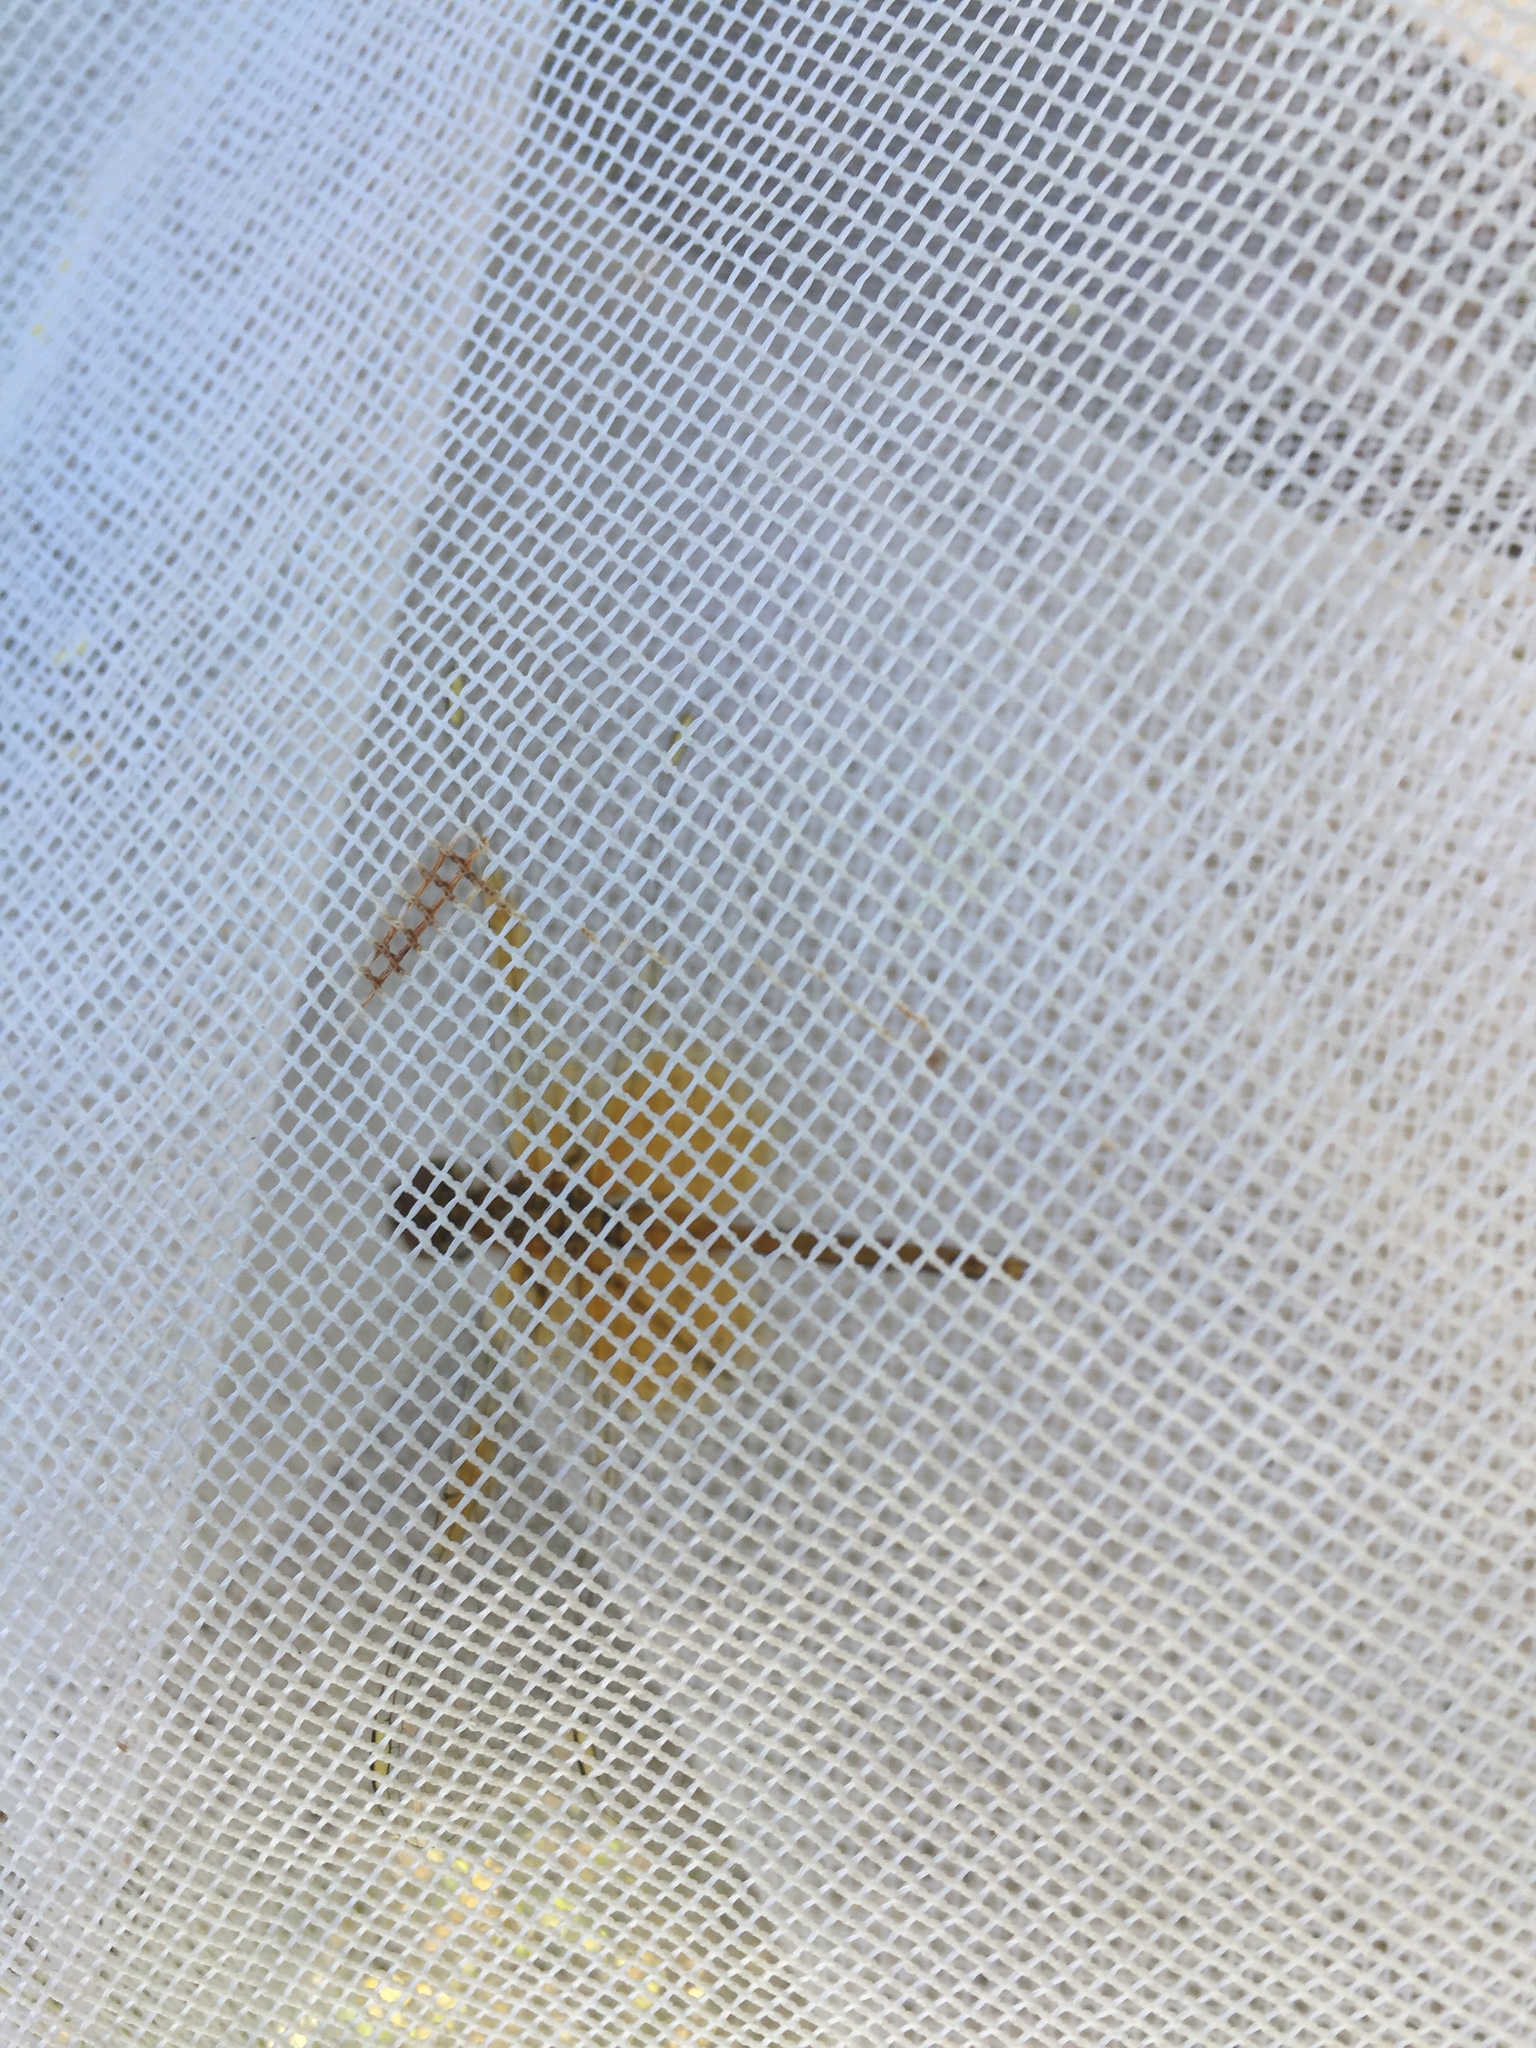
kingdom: Animalia
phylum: Arthropoda
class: Insecta
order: Odonata
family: Libellulidae
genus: Sympetrum
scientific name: Sympetrum flaveolum
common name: Yellow-winged darter
